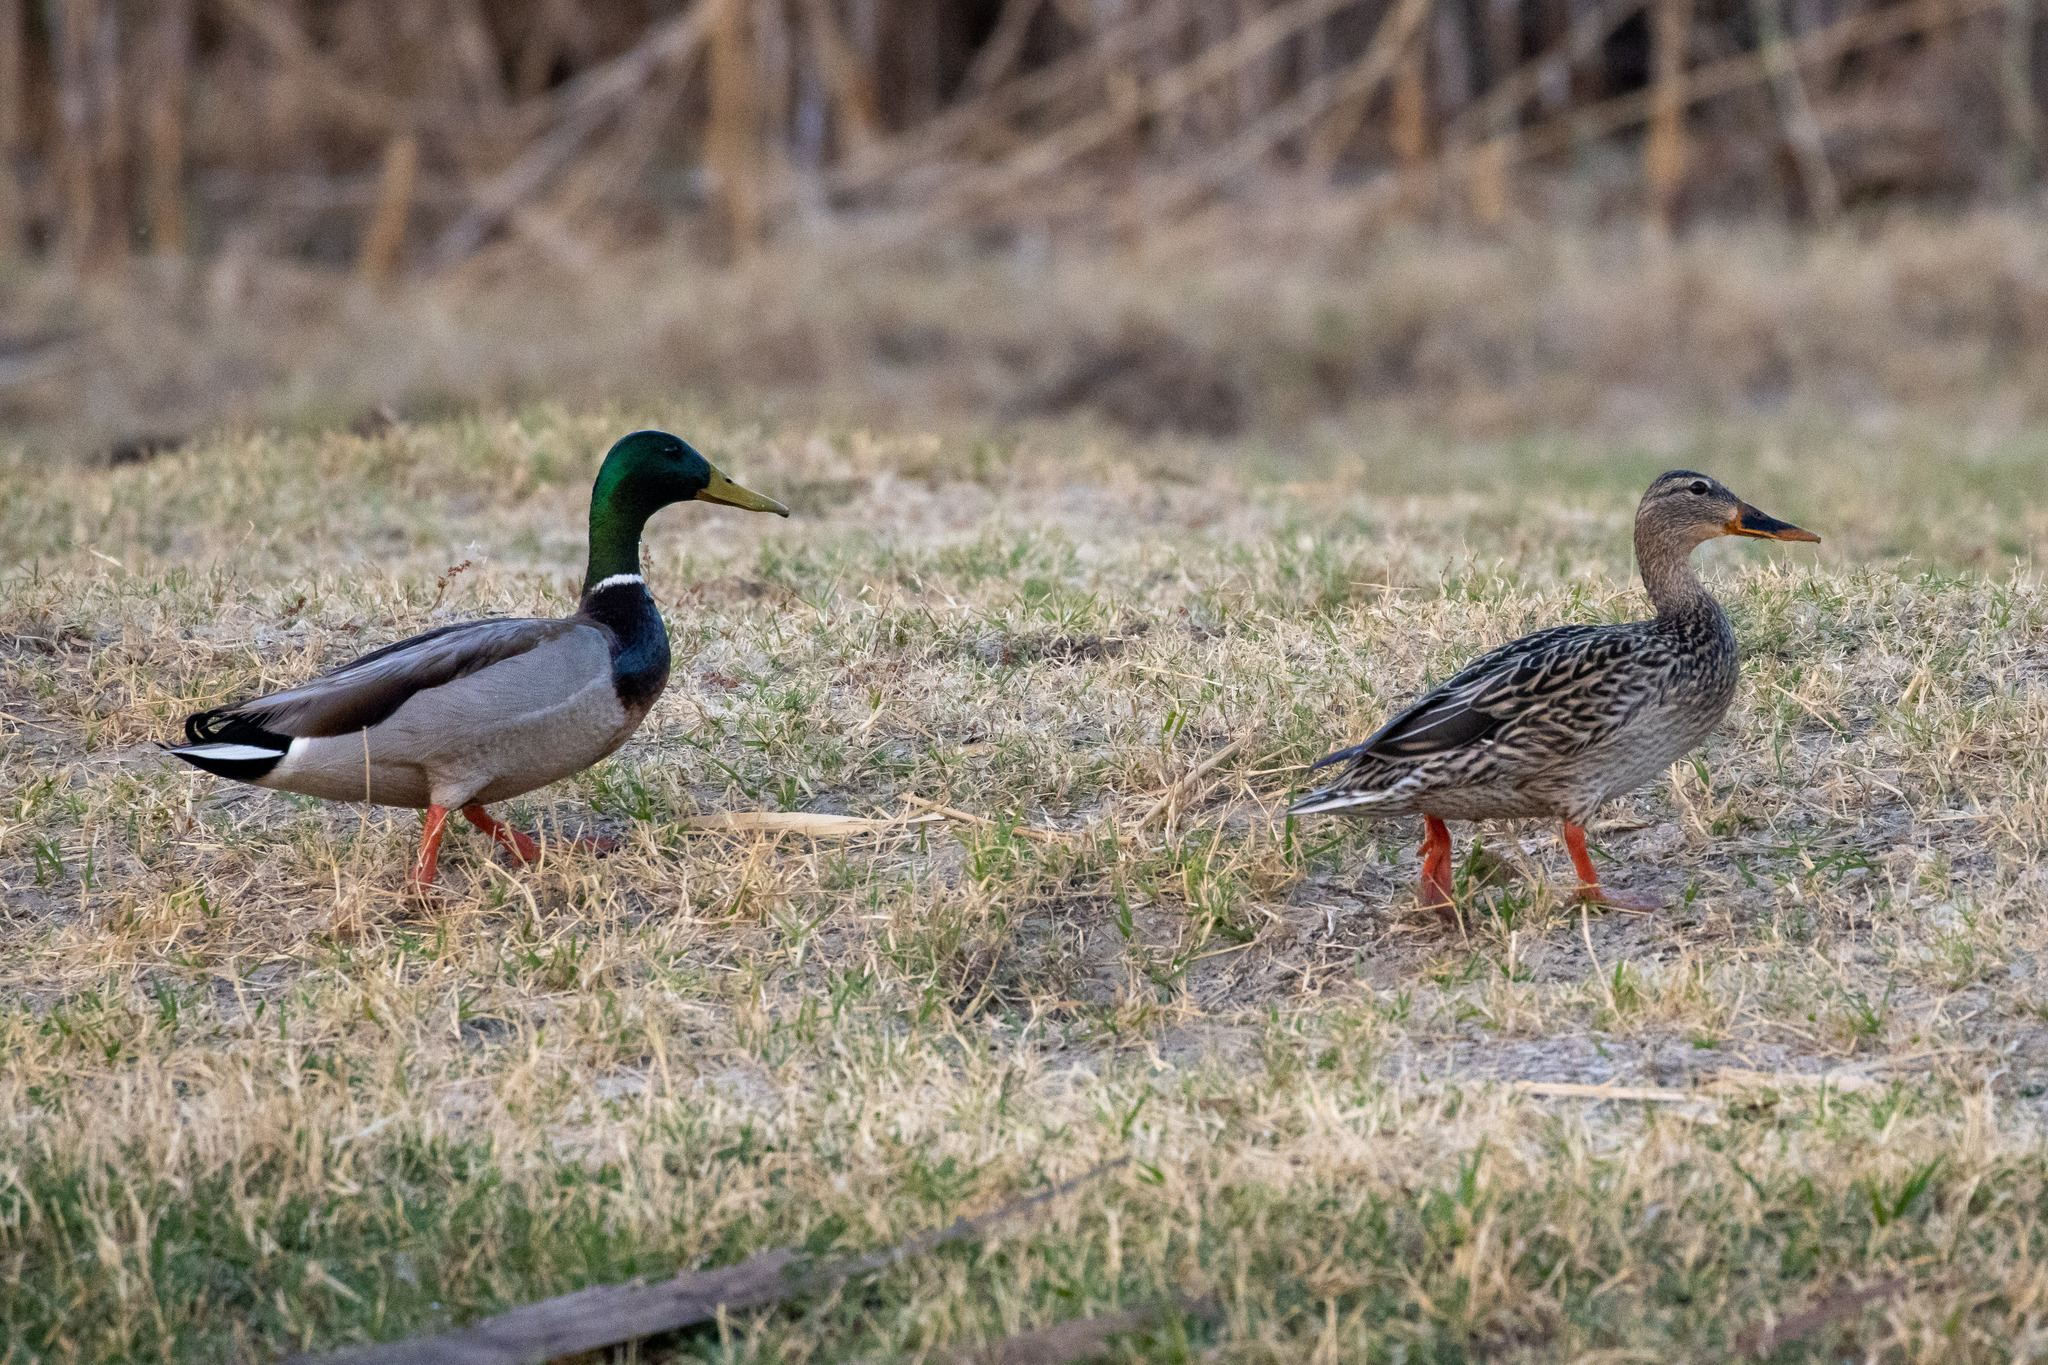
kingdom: Animalia
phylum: Chordata
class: Aves
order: Anseriformes
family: Anatidae
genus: Anas
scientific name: Anas platyrhynchos
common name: Mallard
